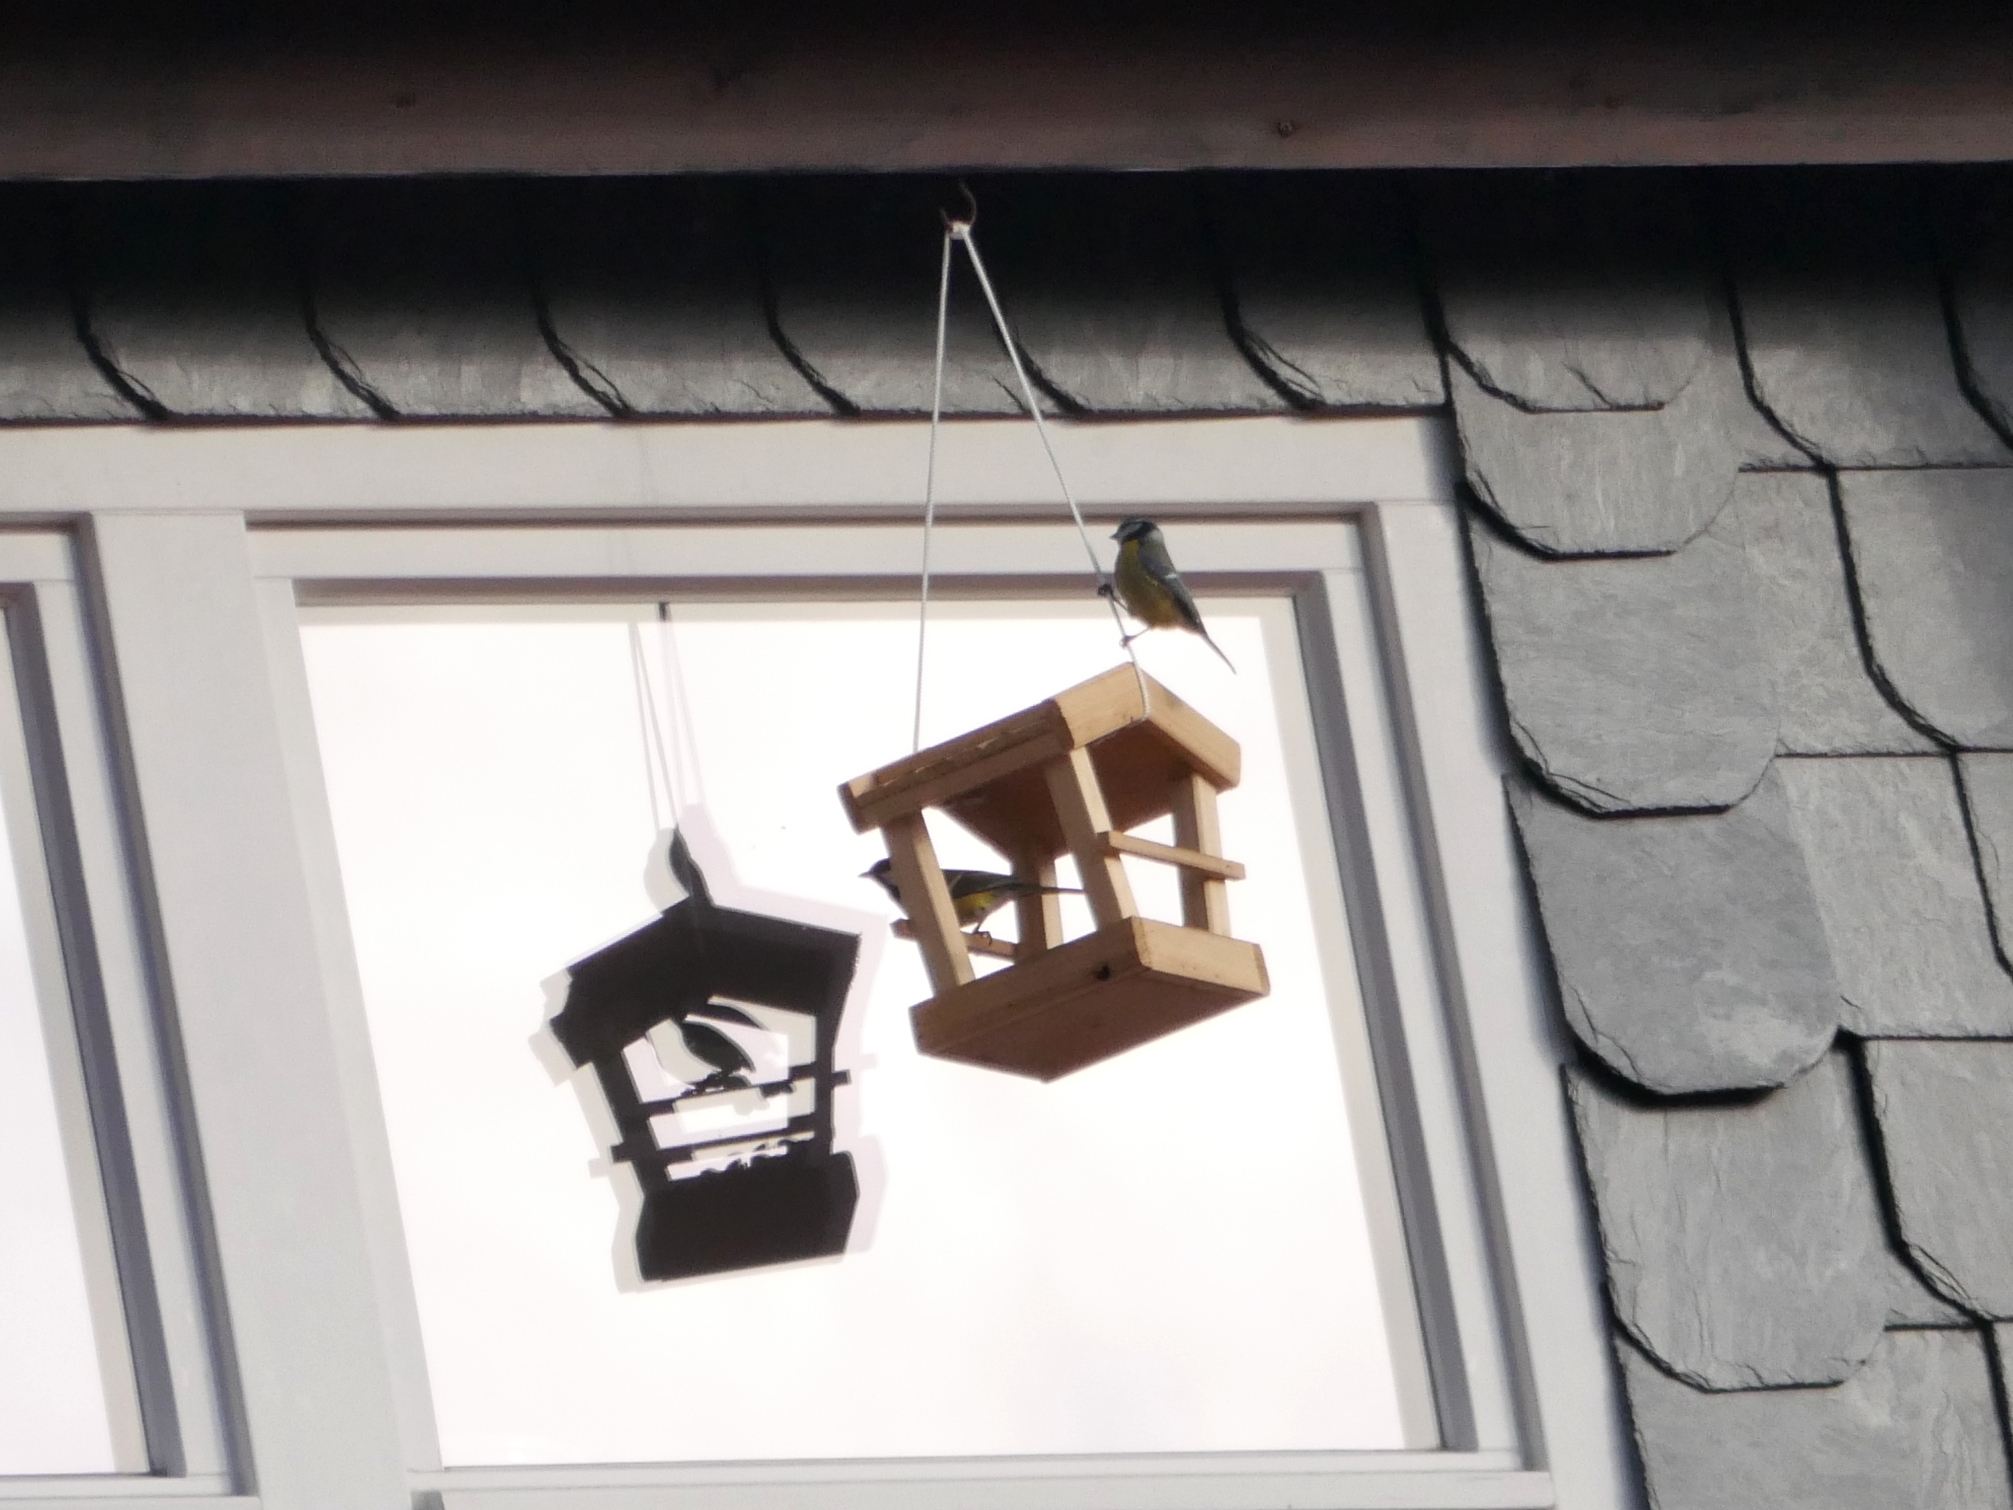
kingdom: Animalia
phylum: Chordata
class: Aves
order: Passeriformes
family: Paridae
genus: Cyanistes
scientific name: Cyanistes caeruleus
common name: Eurasian blue tit
